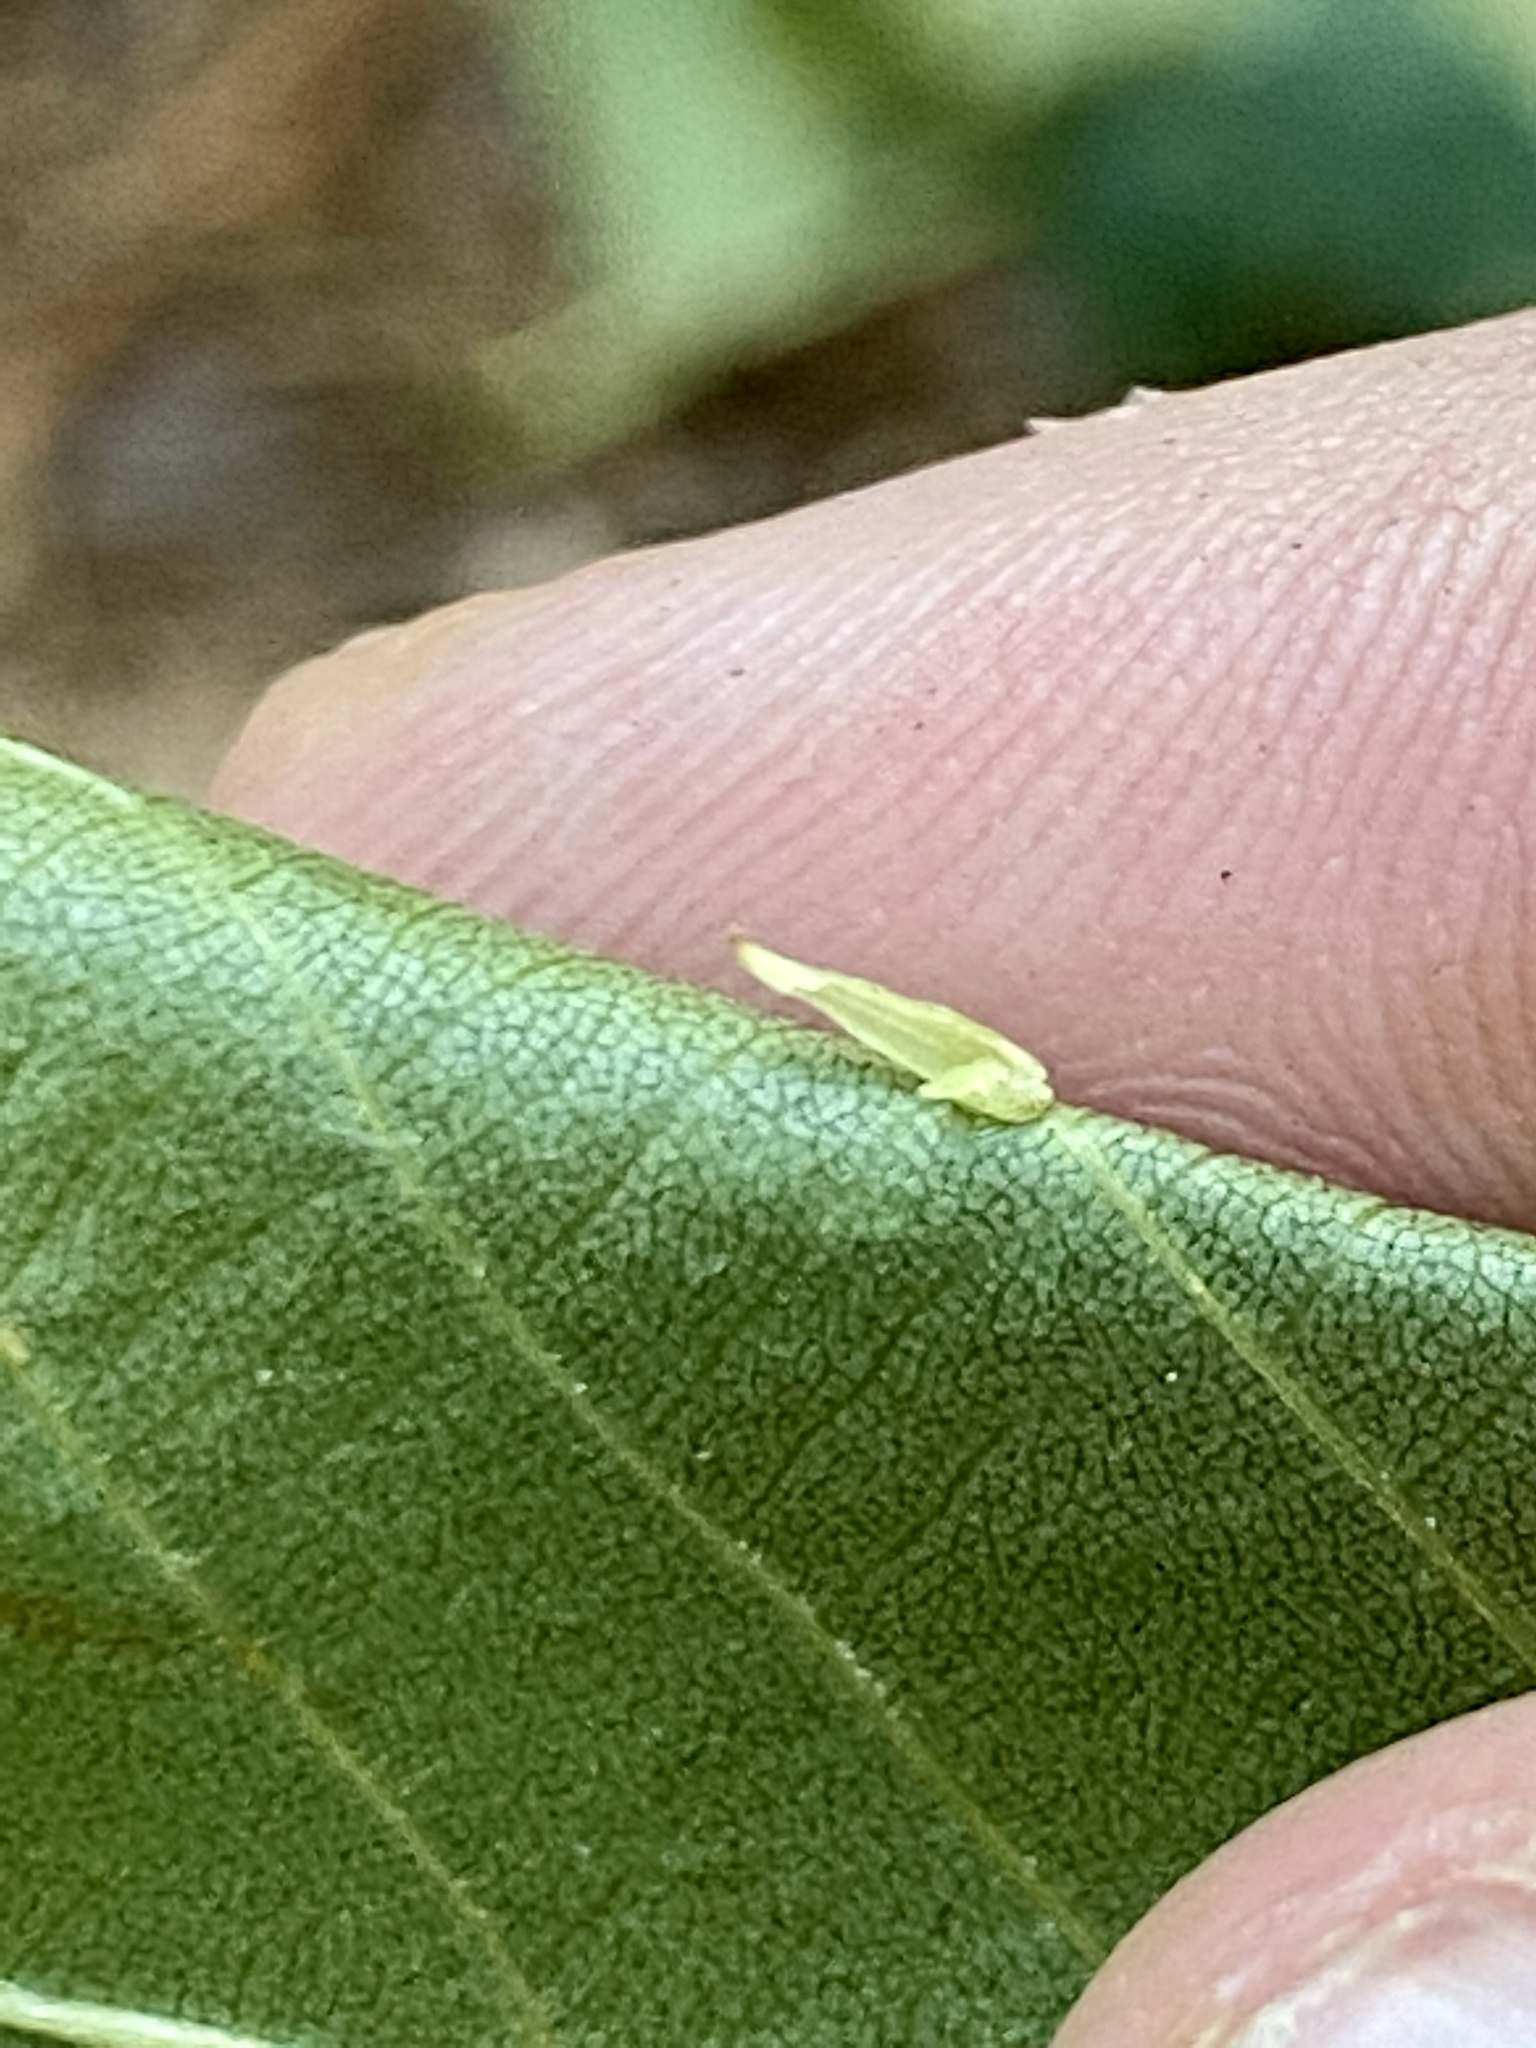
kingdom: Animalia
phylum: Arthropoda
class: Insecta
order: Diptera
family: Cecidomyiidae
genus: Caryomyia
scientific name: Caryomyia
